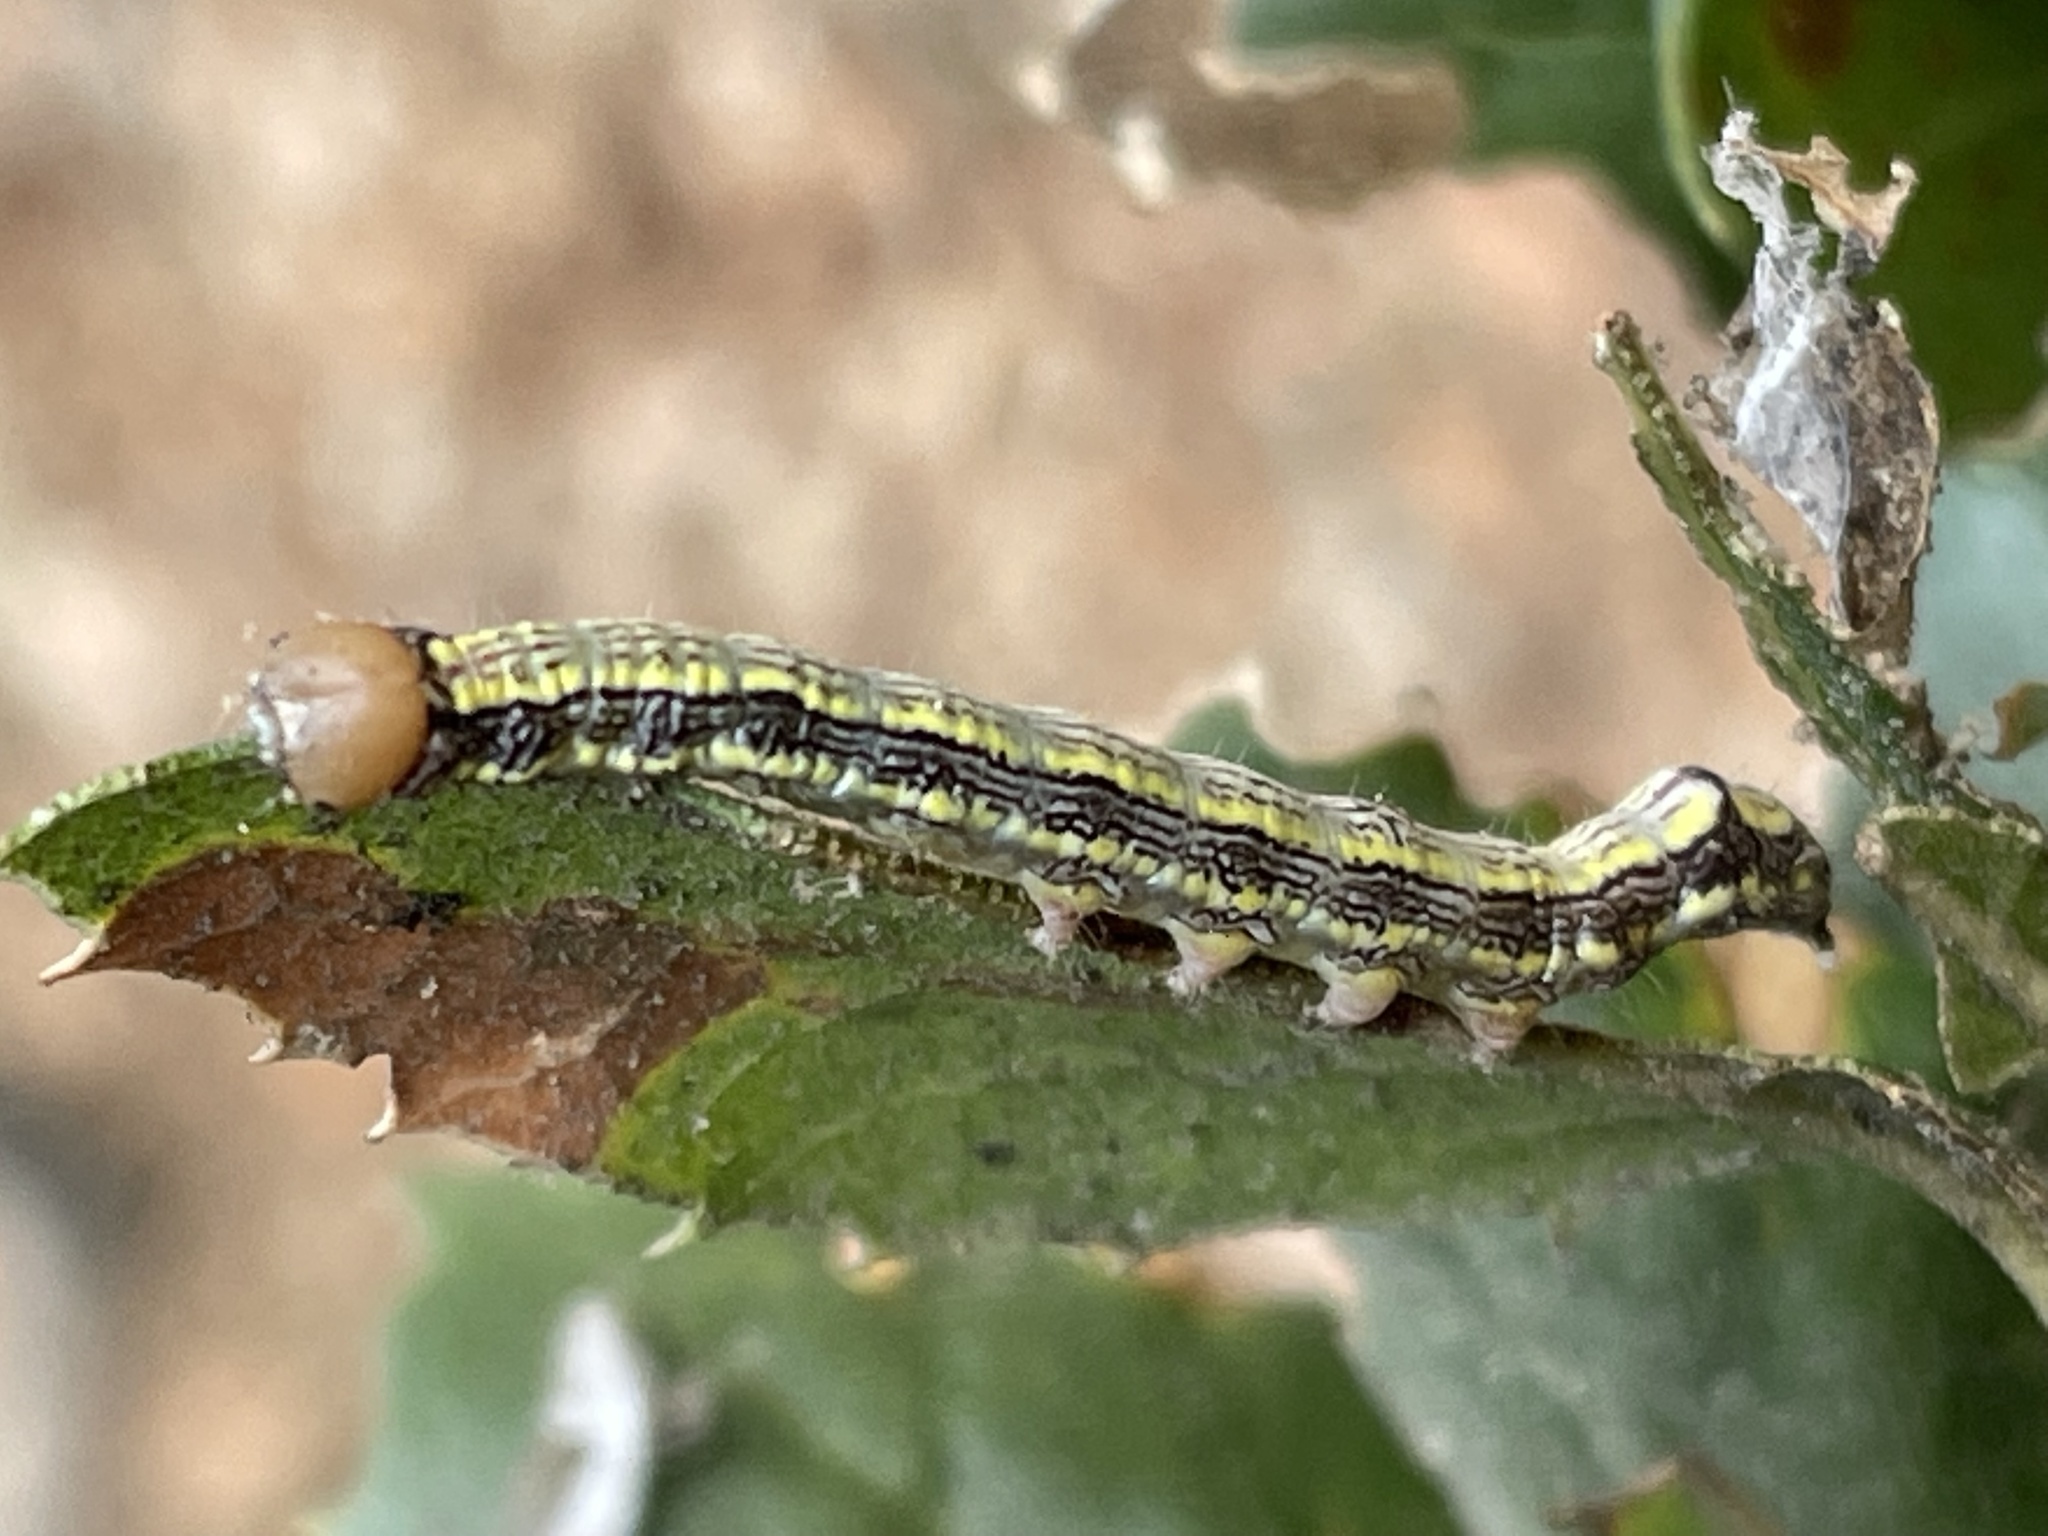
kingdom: Animalia
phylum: Arthropoda
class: Insecta
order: Lepidoptera
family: Notodontidae
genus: Phryganidia
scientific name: Phryganidia californica
